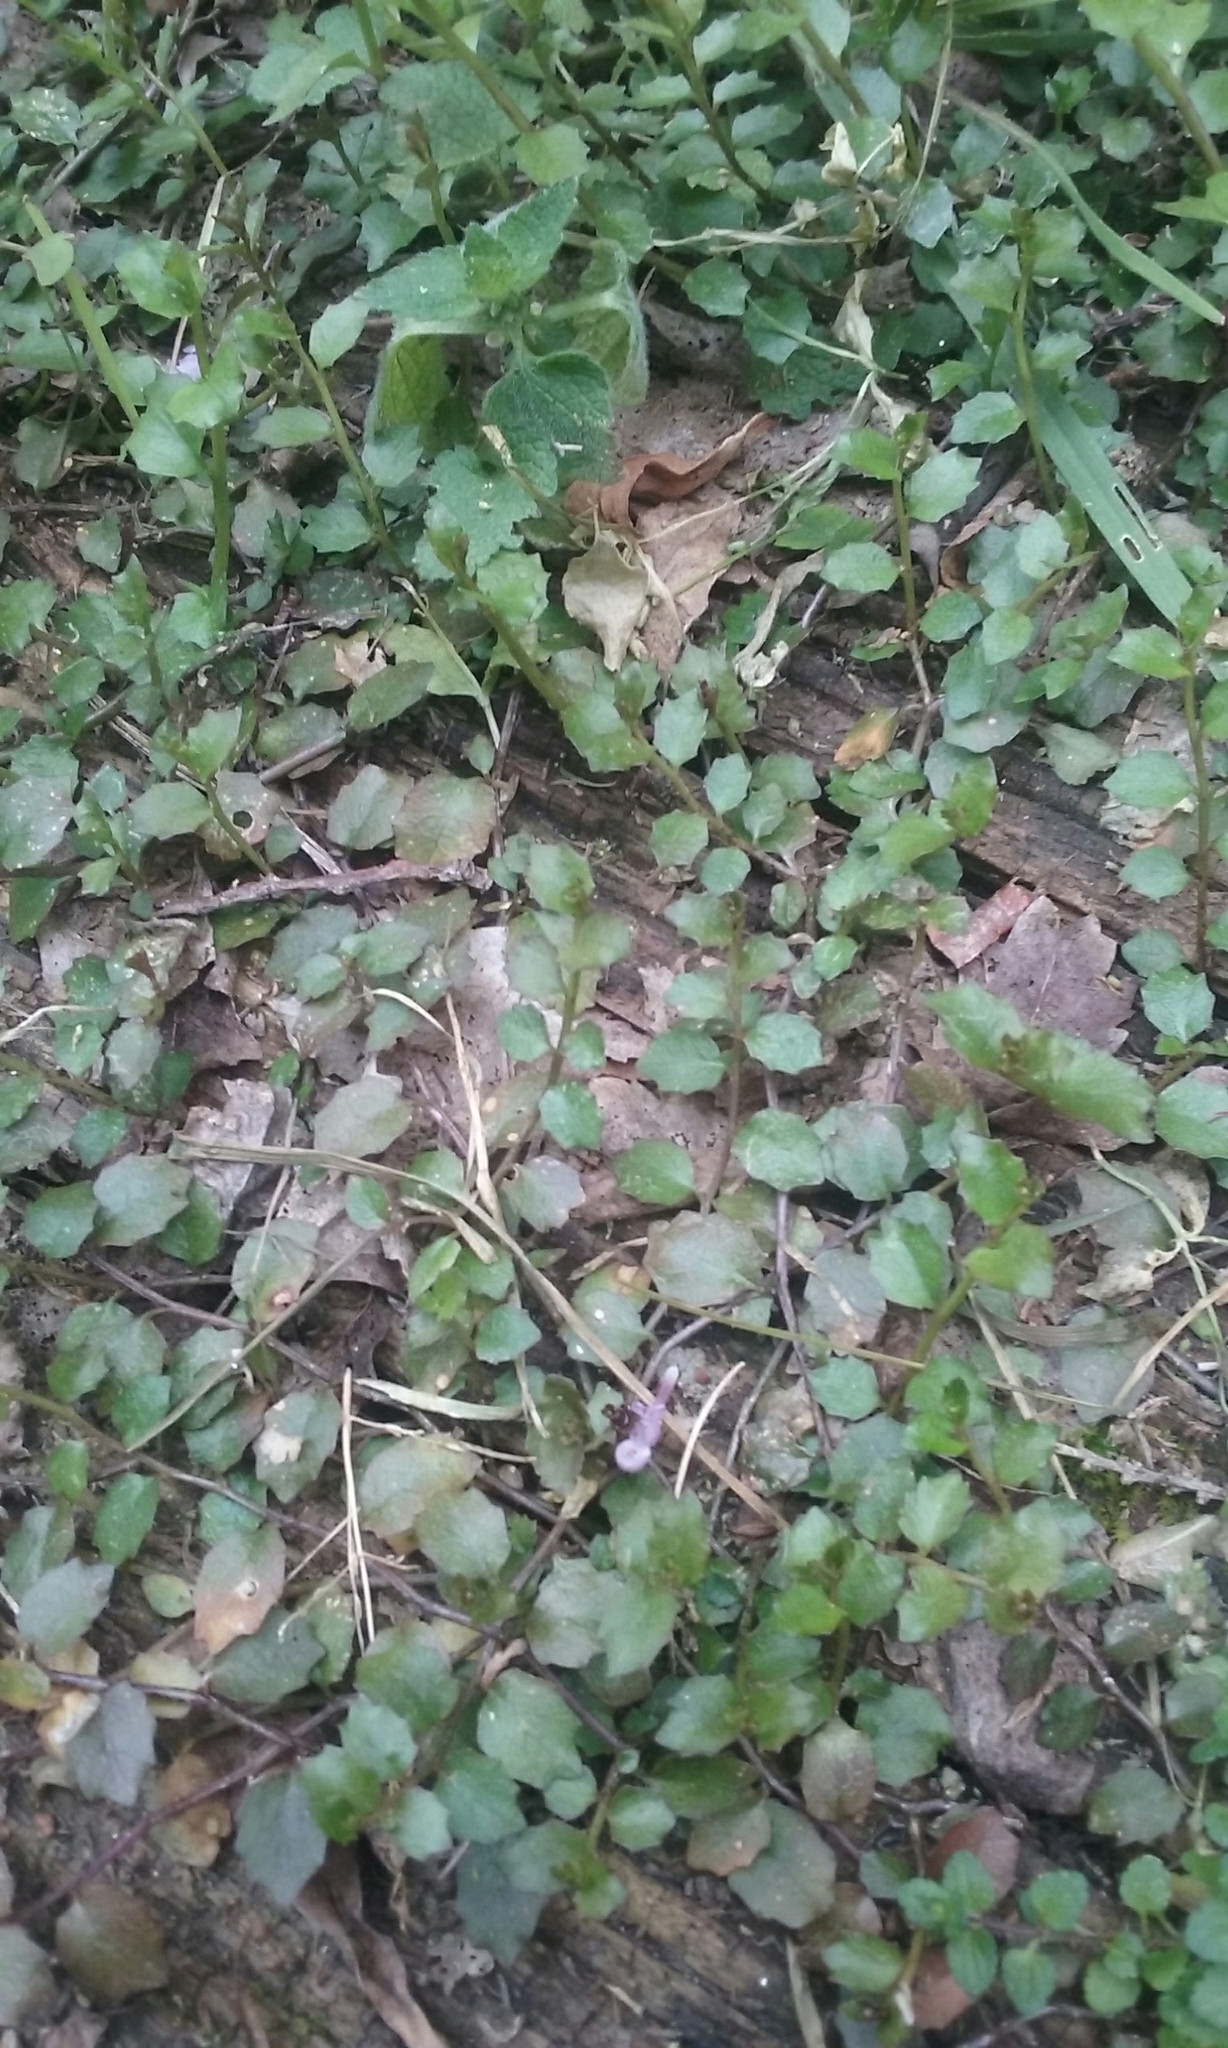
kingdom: Plantae
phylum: Tracheophyta
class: Magnoliopsida
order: Asterales
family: Campanulaceae
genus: Lobelia
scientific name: Lobelia angulata
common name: Lawn lobelia
